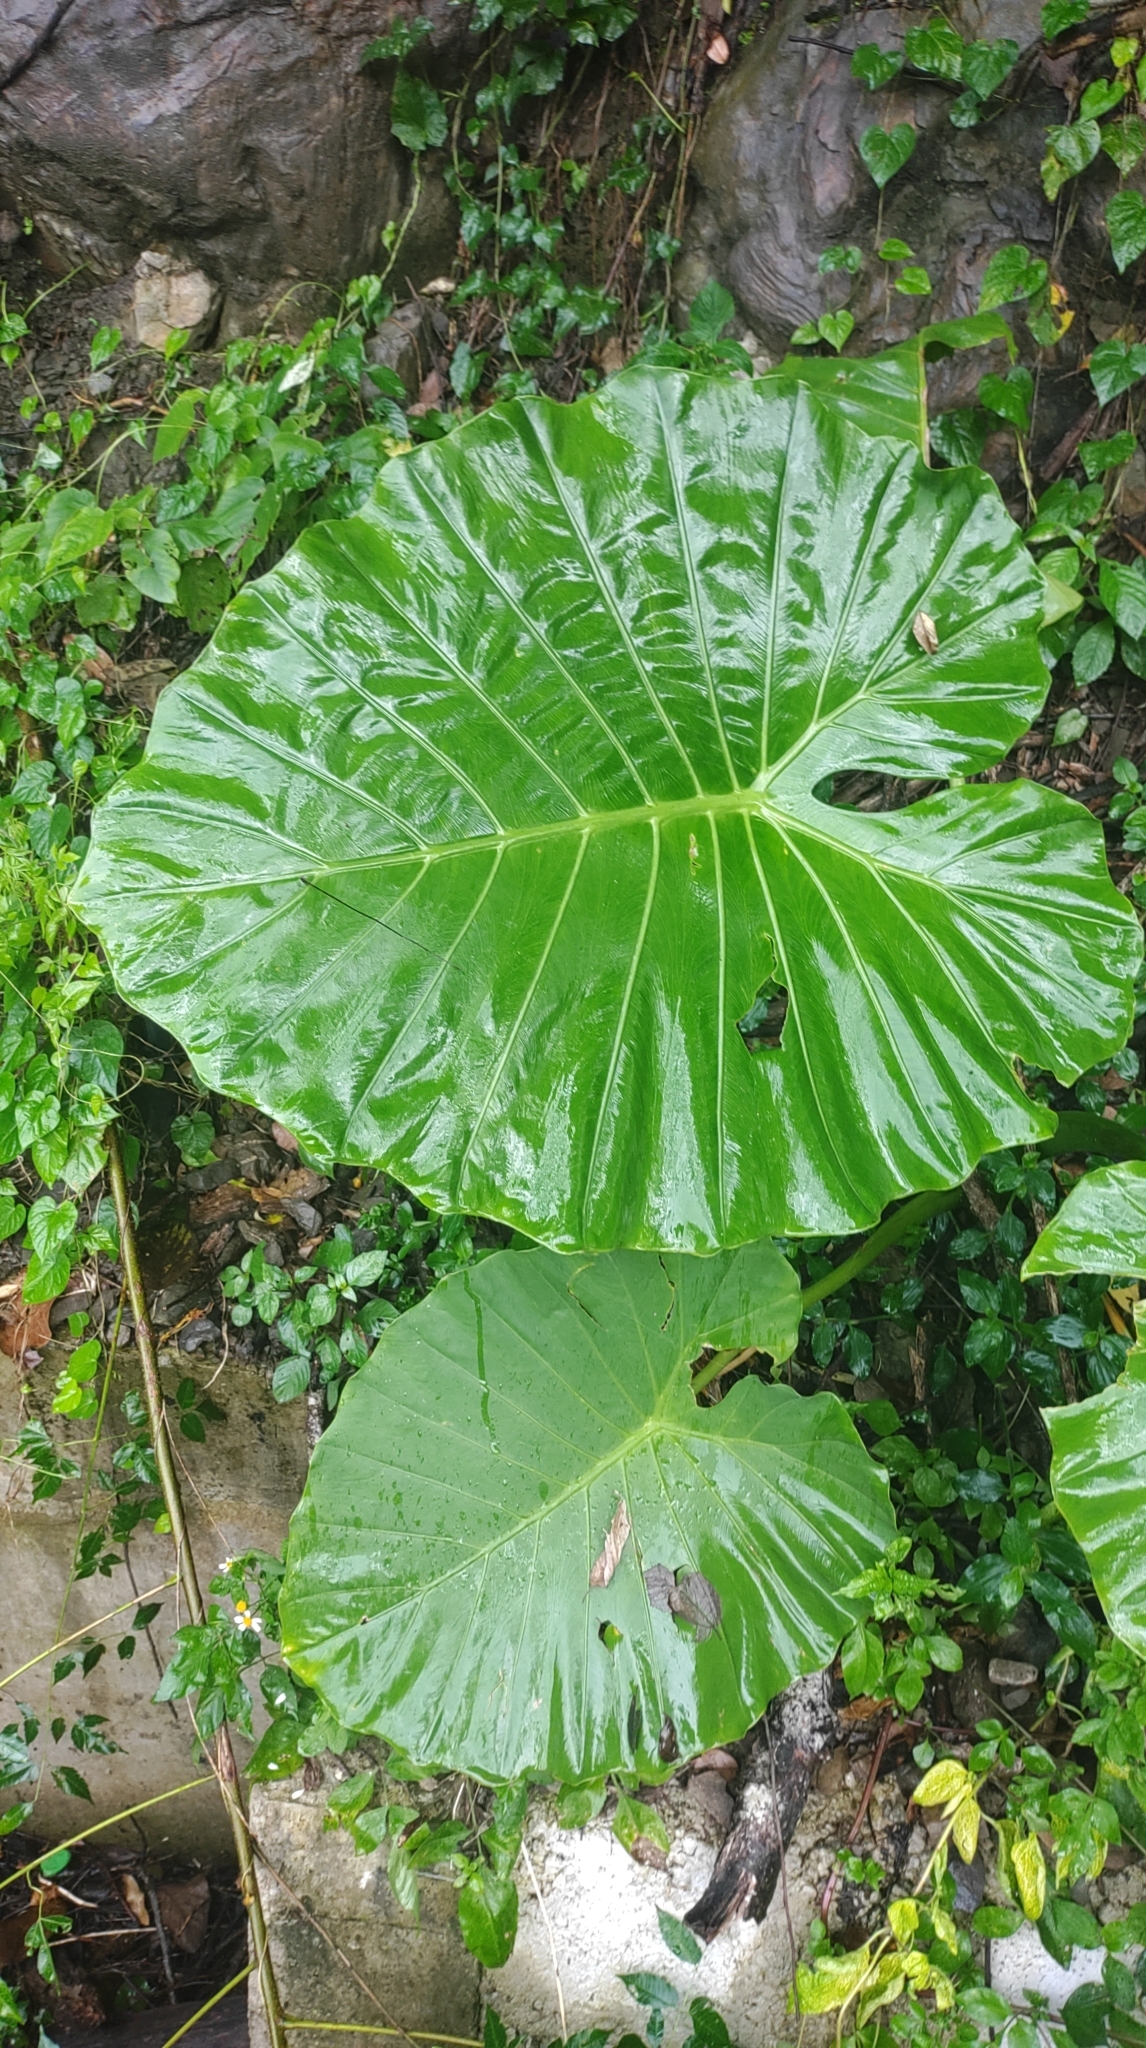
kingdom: Plantae
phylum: Tracheophyta
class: Liliopsida
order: Alismatales
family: Araceae
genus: Alocasia
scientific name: Alocasia odora
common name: Asian taro
